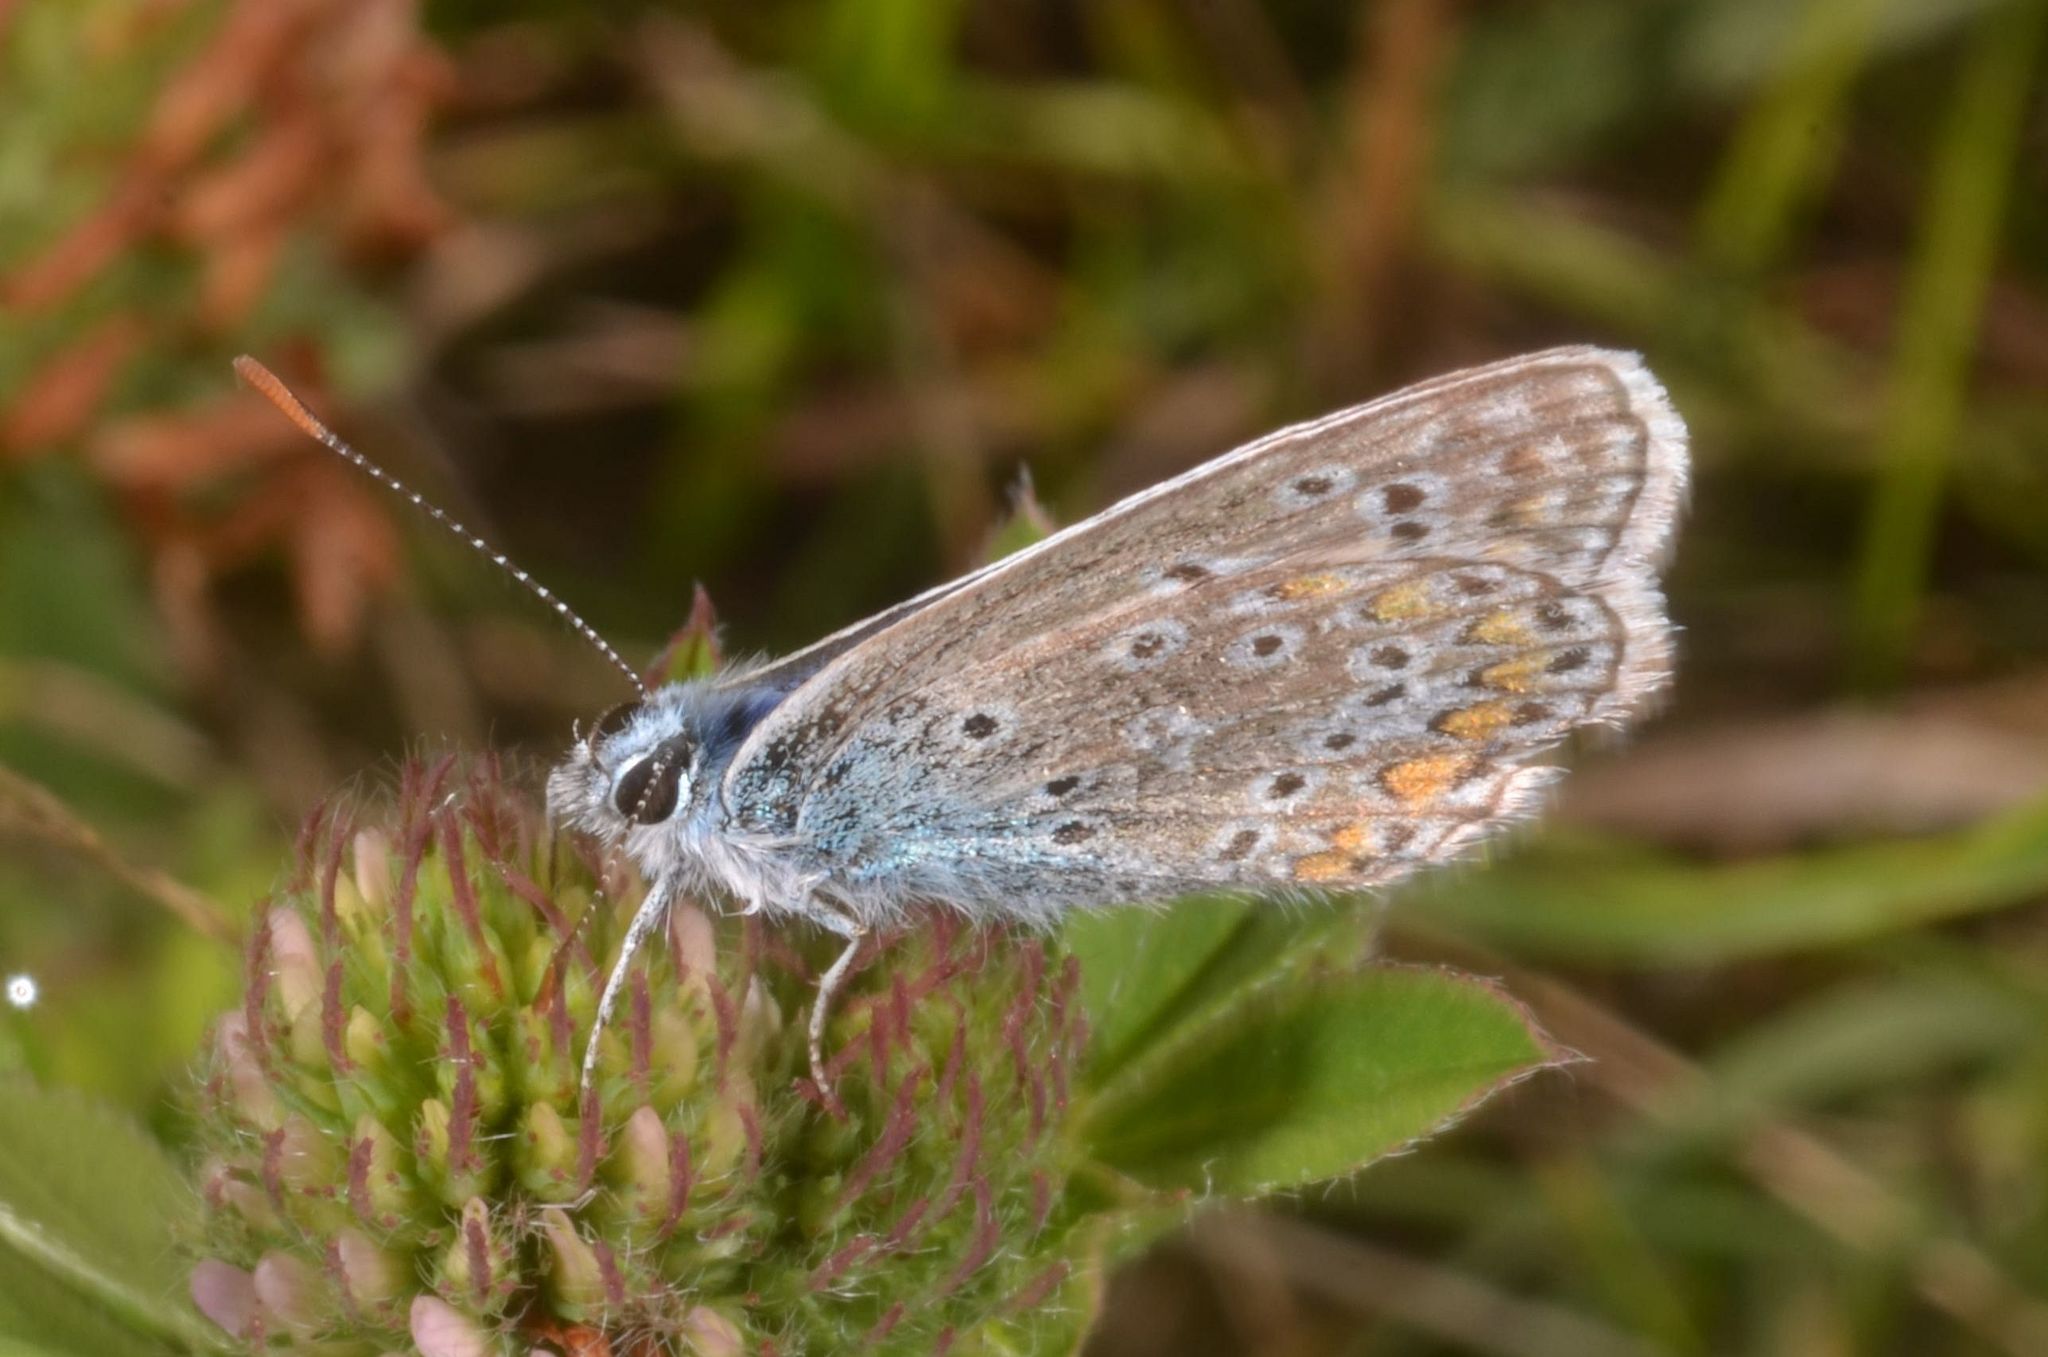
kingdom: Animalia
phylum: Arthropoda
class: Insecta
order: Lepidoptera
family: Lycaenidae
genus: Polyommatus
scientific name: Polyommatus icarus
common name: Common blue
